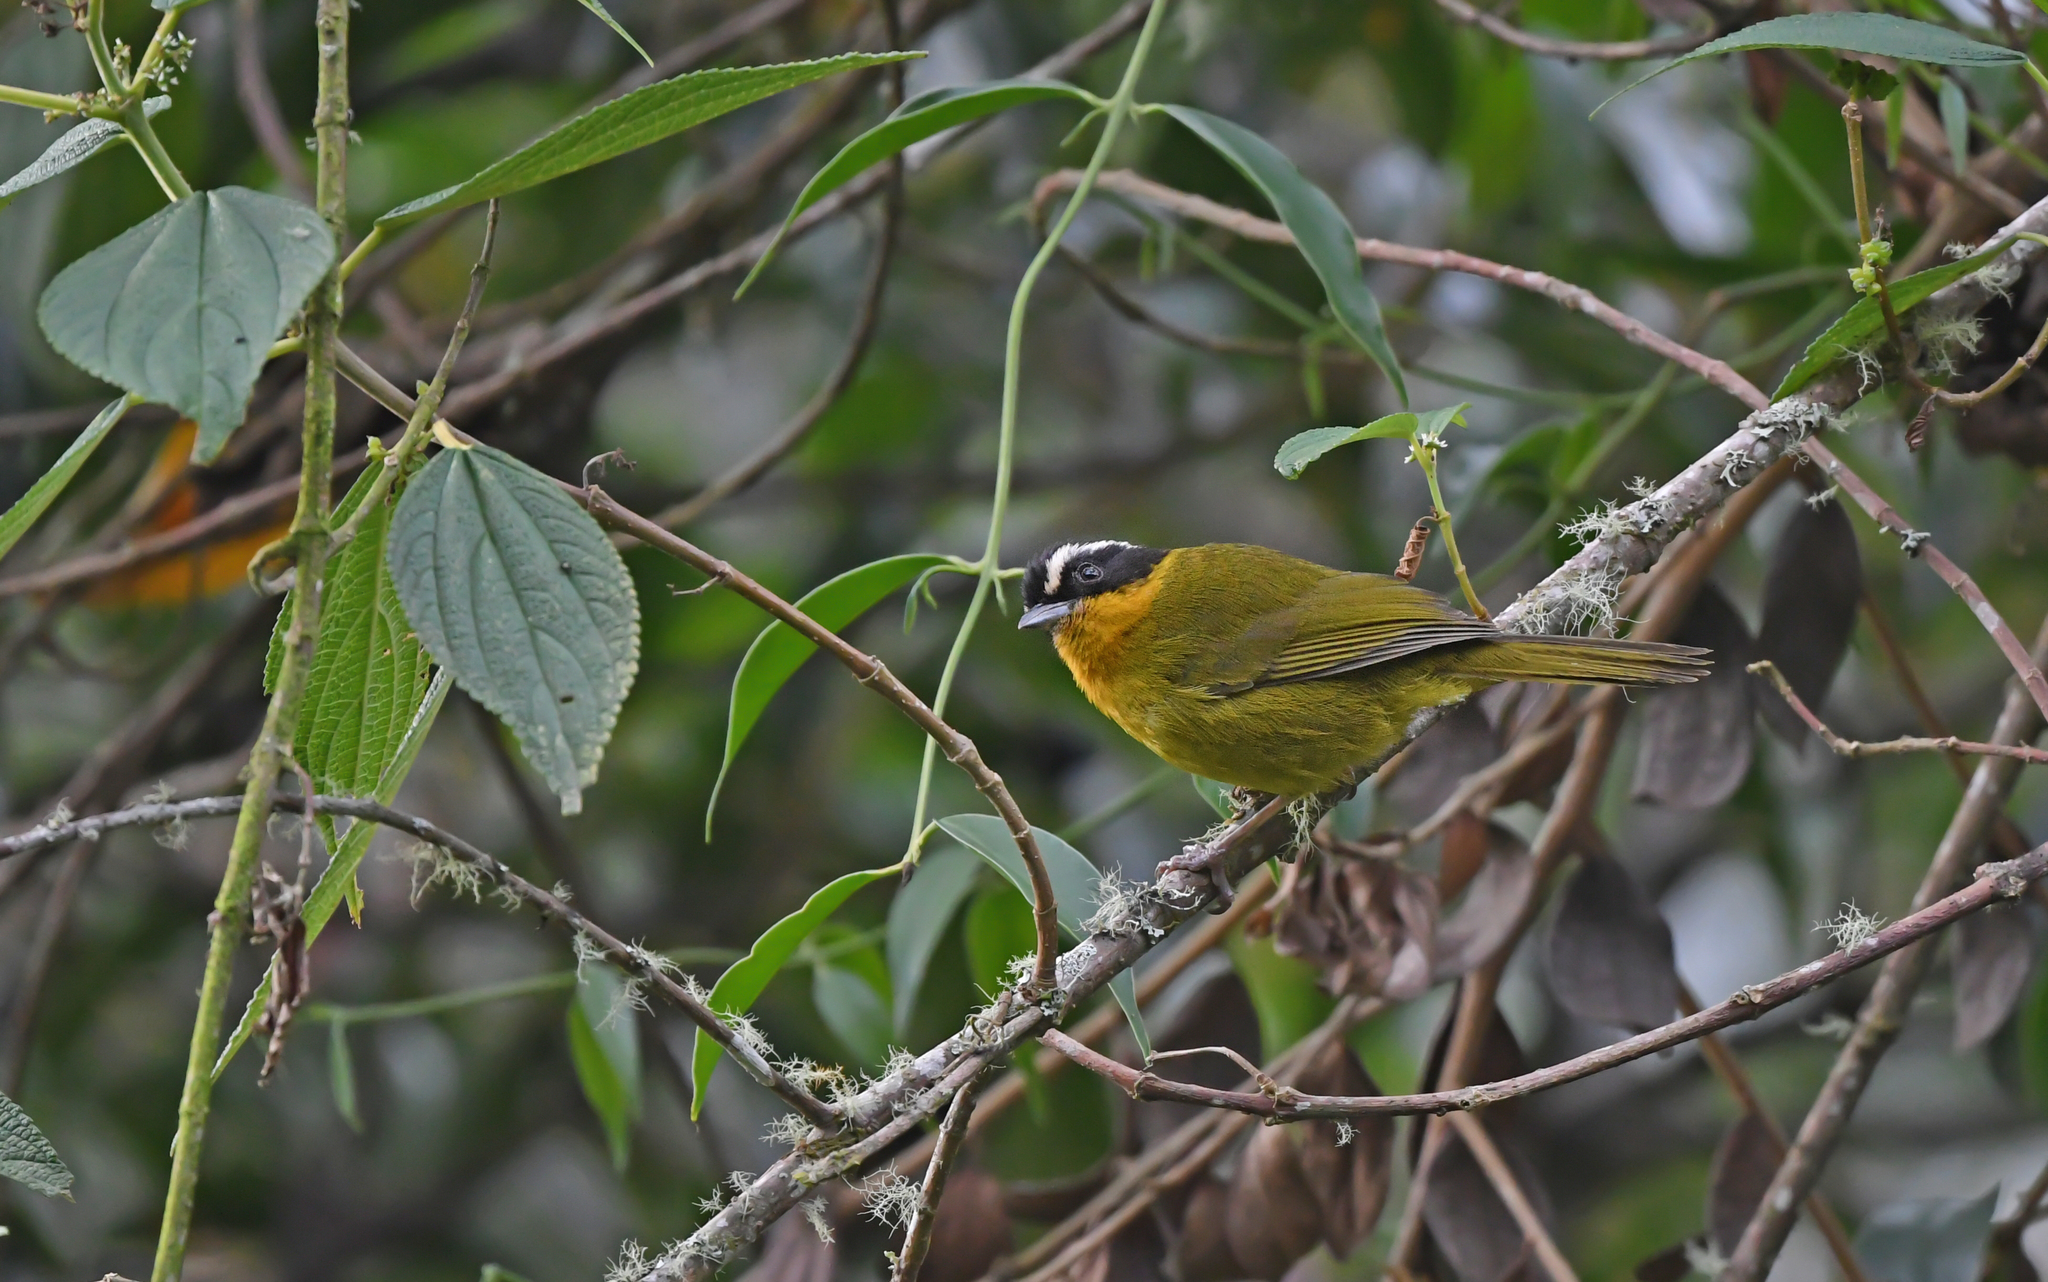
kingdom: Animalia
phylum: Chordata
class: Aves
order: Passeriformes
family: Thraupidae
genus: Kleinothraupis
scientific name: Kleinothraupis atropileus
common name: Black-capped hemispingus
